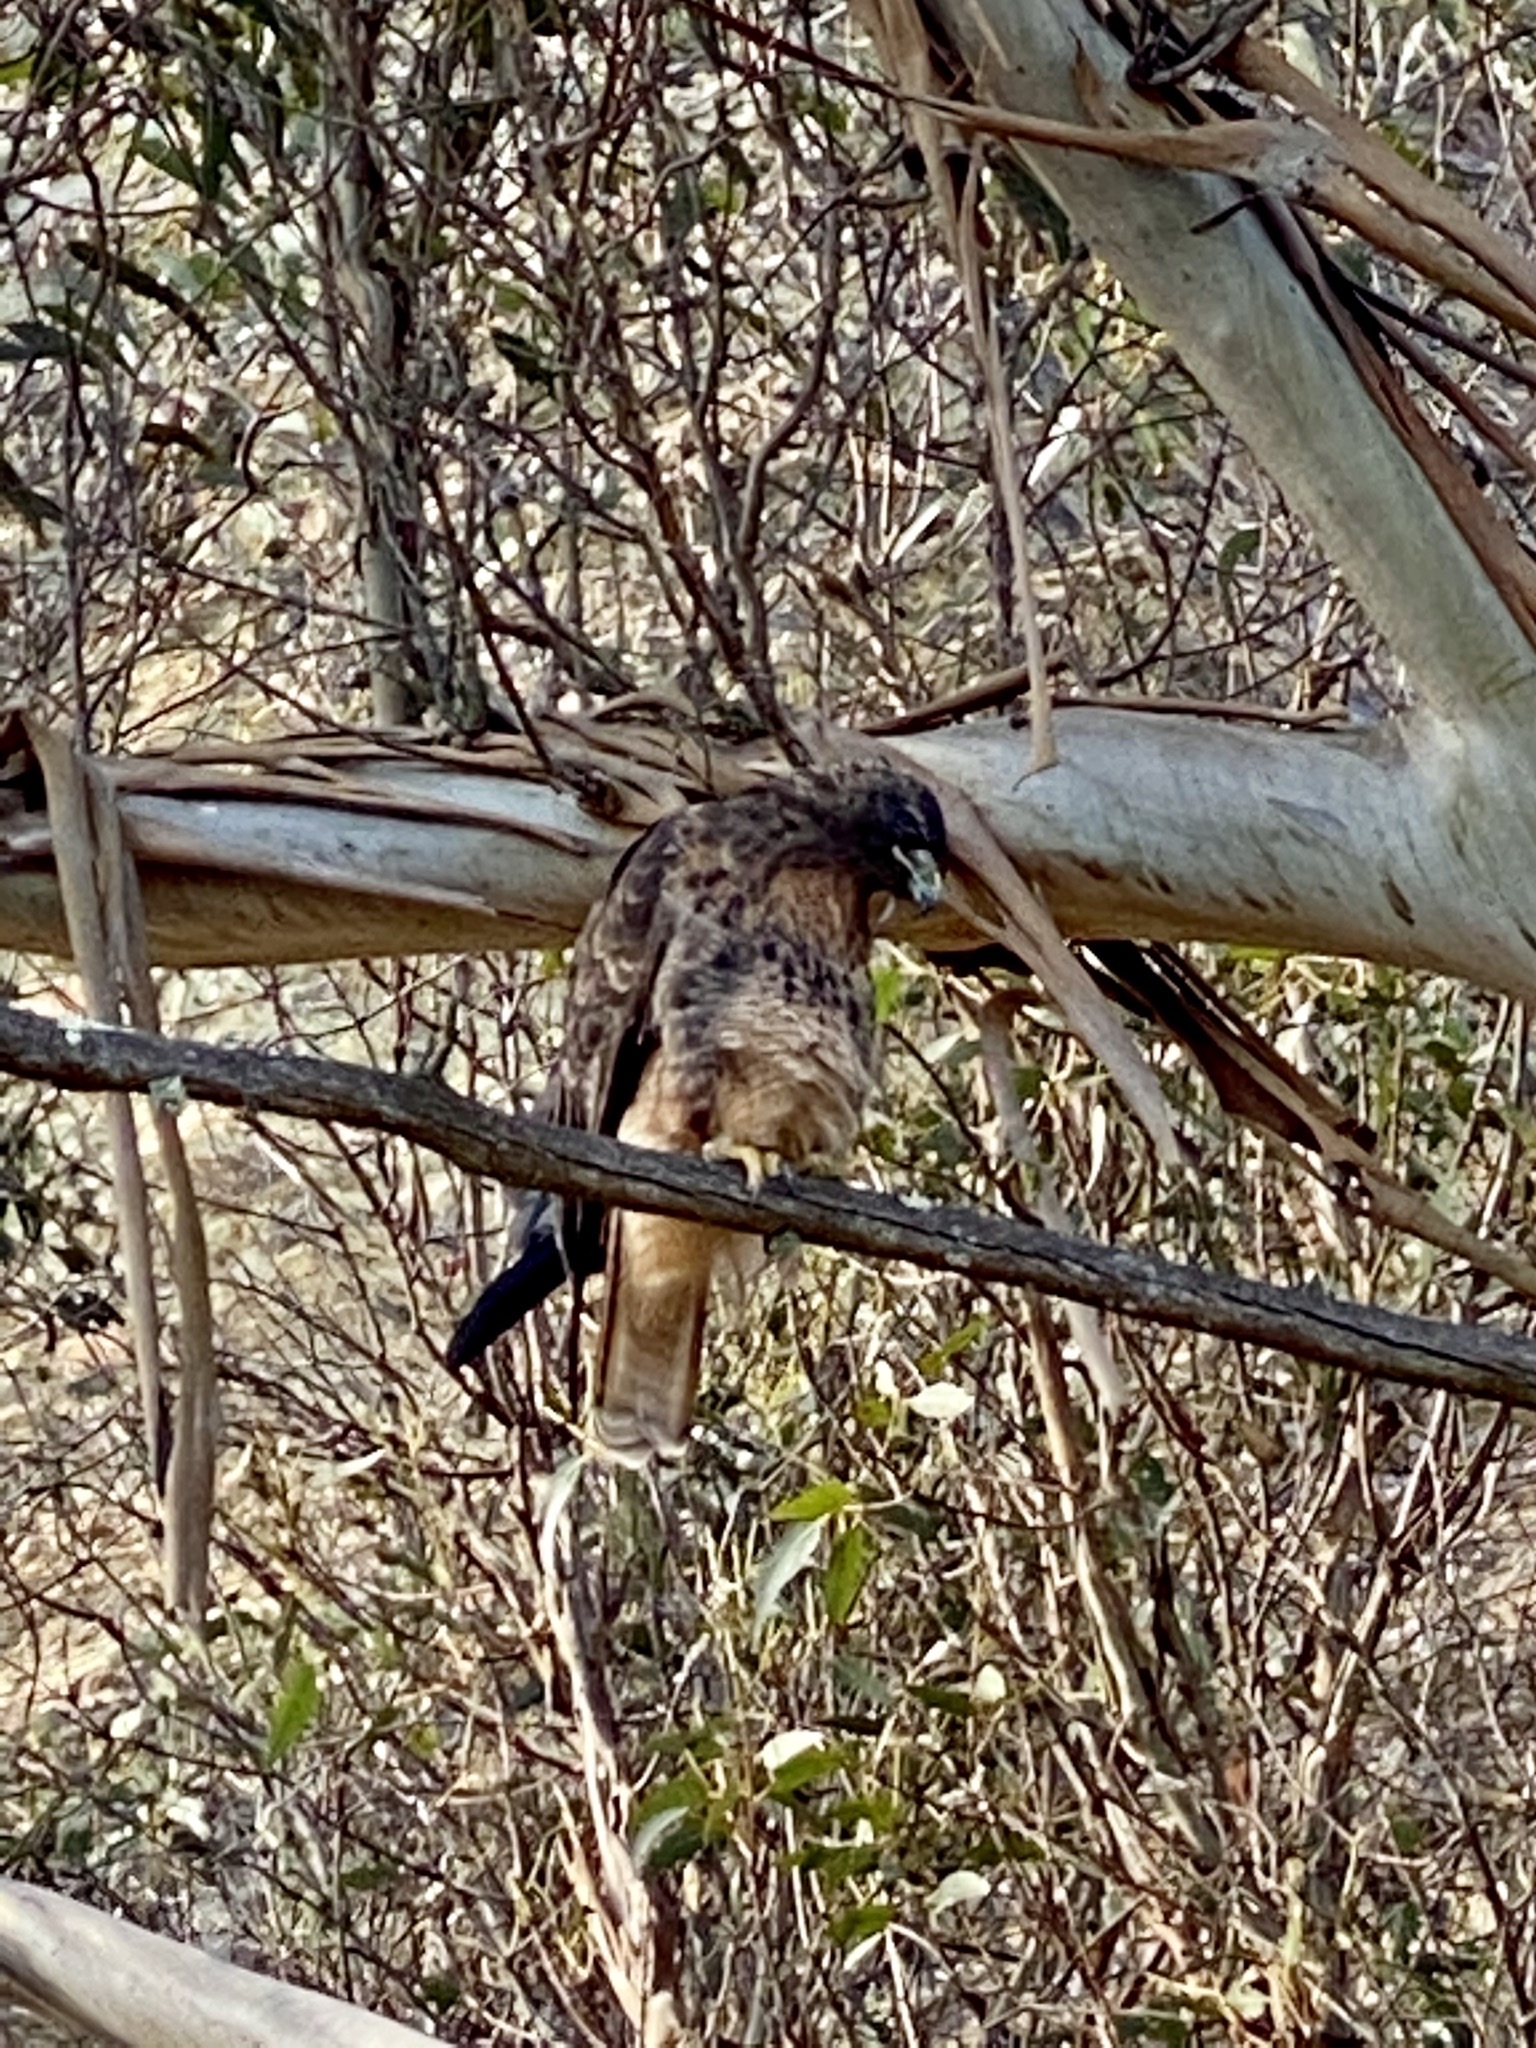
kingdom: Animalia
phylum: Chordata
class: Aves
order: Accipitriformes
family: Accipitridae
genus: Buteo
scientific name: Buteo jamaicensis
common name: Red-tailed hawk
